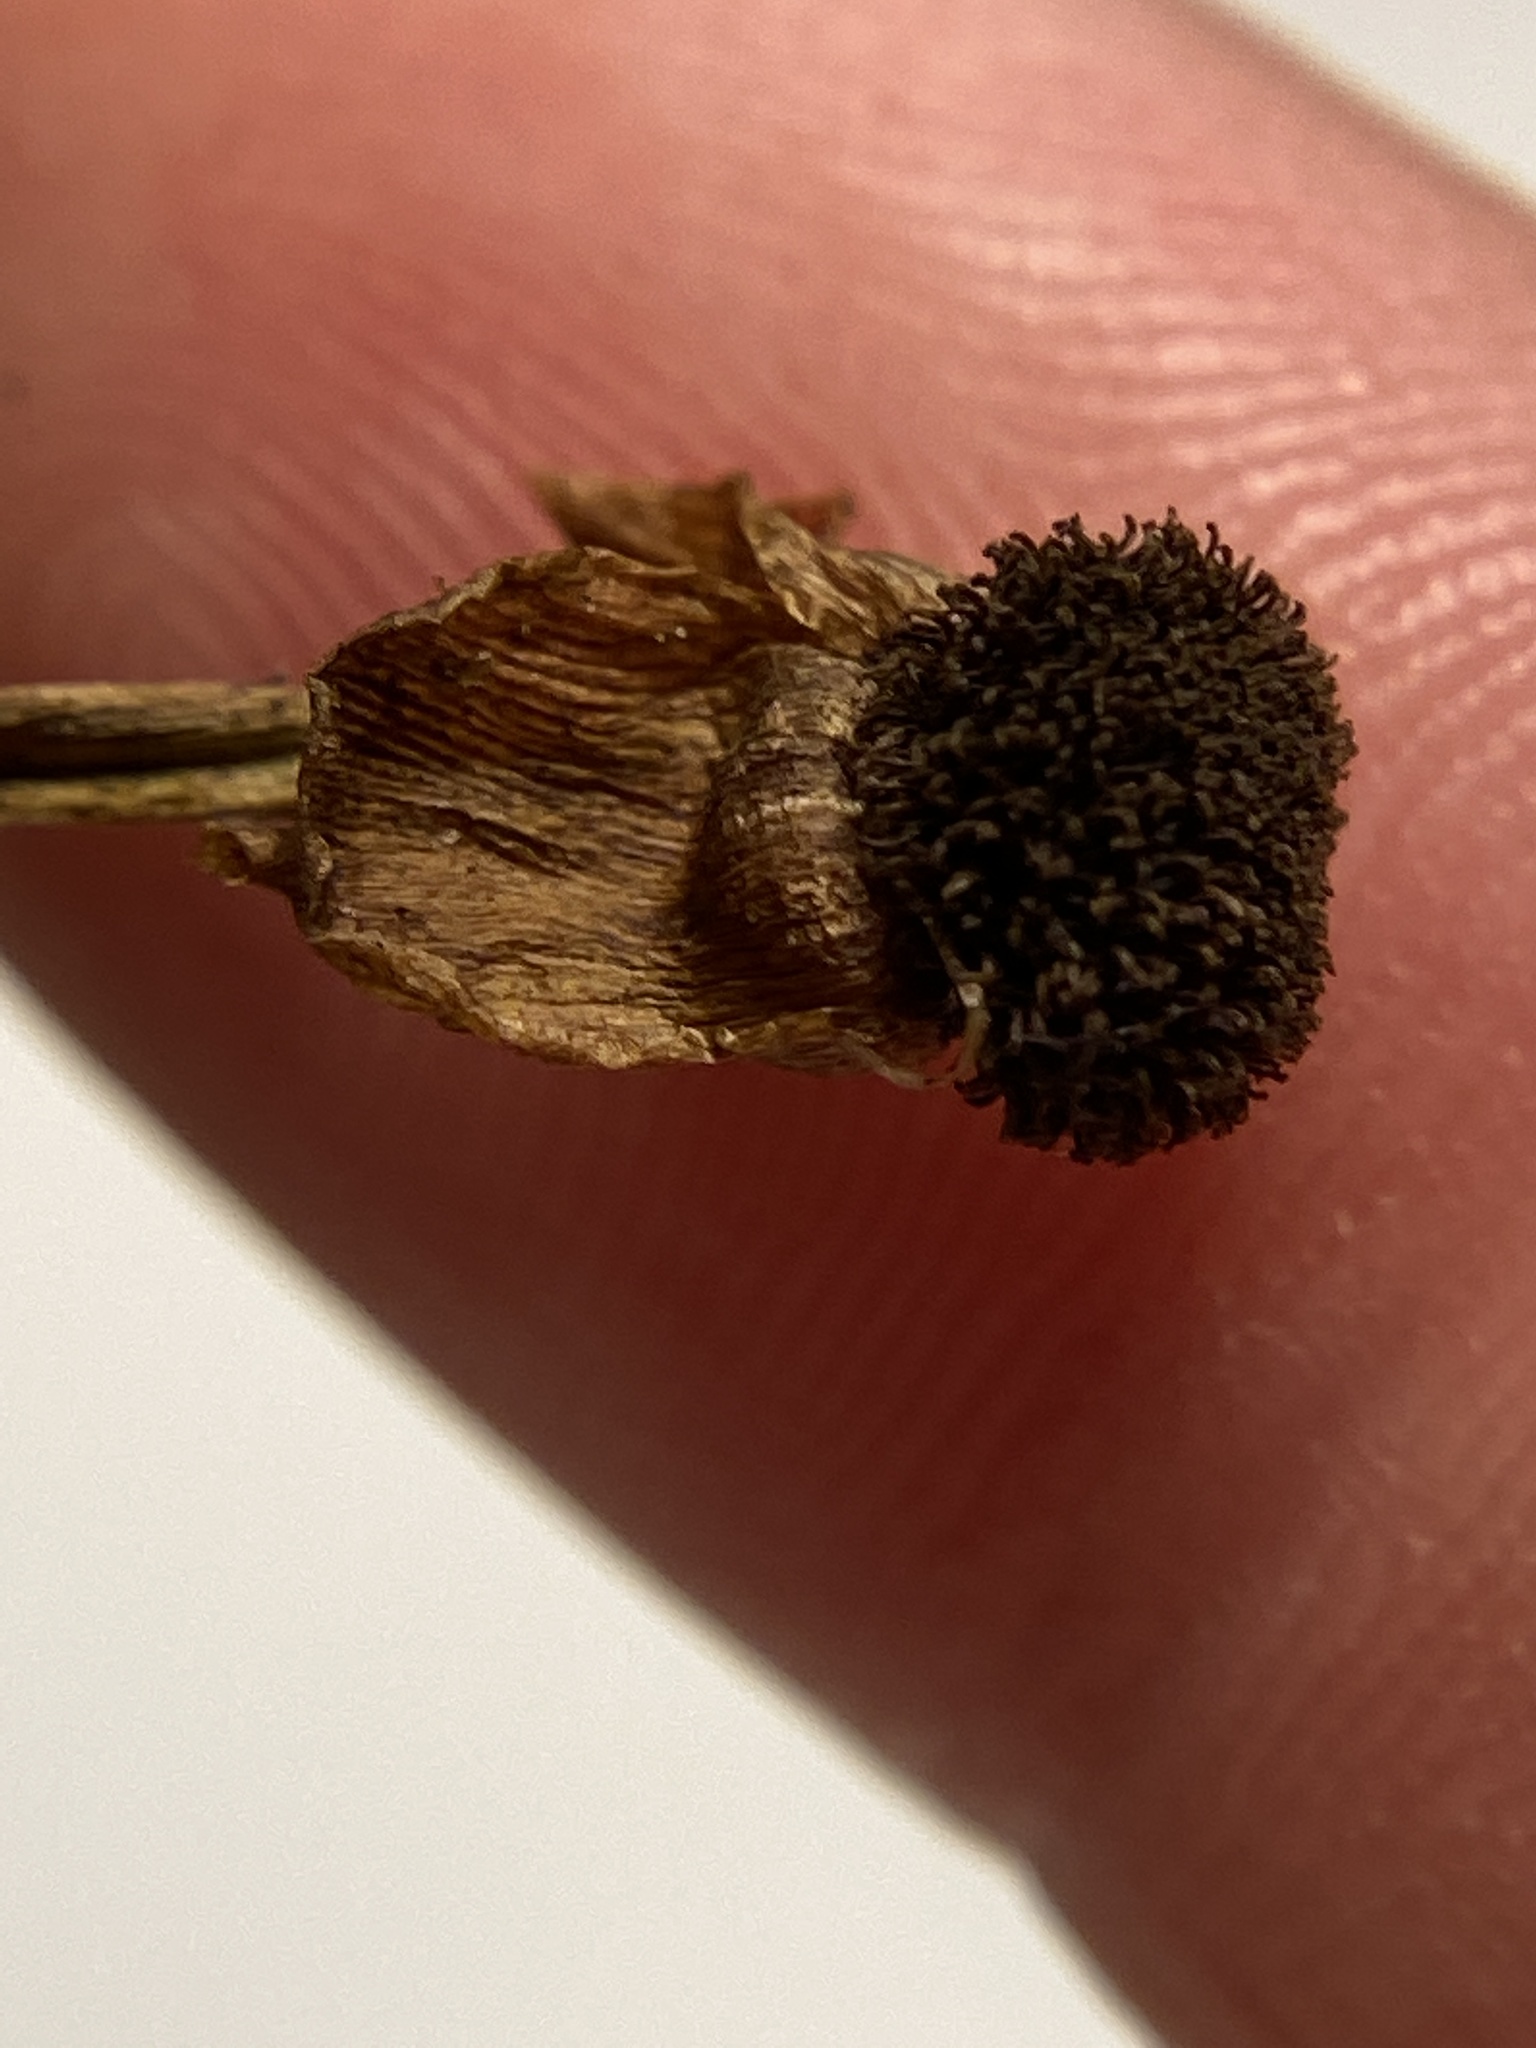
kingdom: Plantae
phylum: Tracheophyta
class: Liliopsida
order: Alismatales
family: Alismataceae
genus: Sagittaria
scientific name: Sagittaria latifolia
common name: Duck-potato
